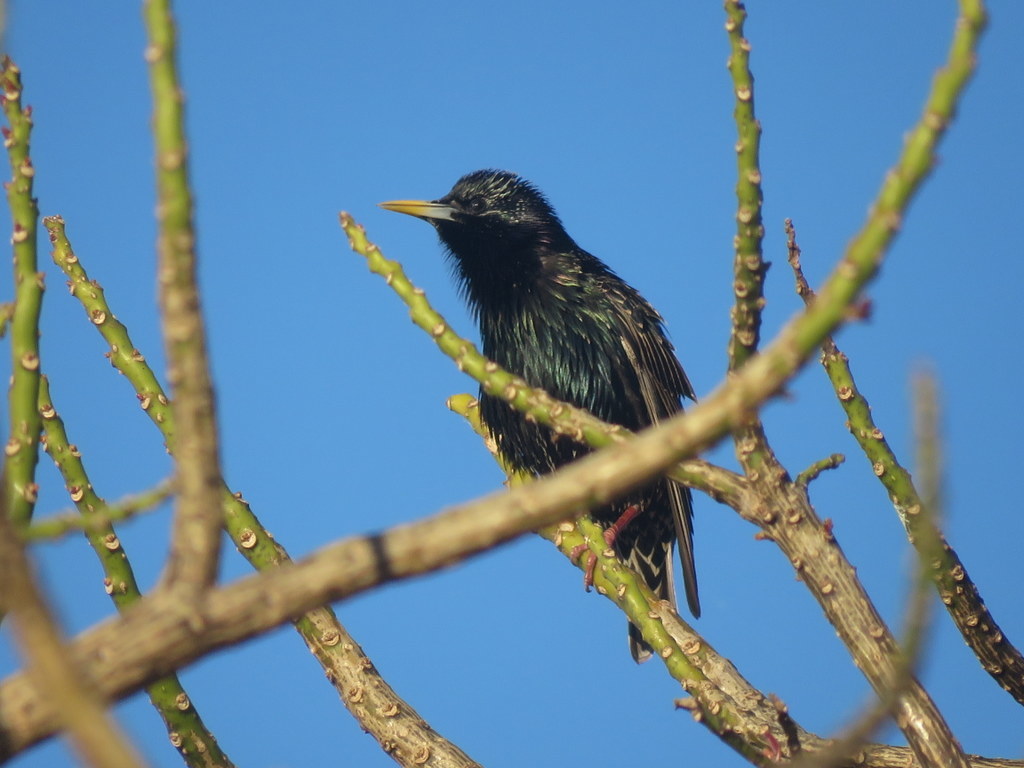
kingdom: Animalia
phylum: Chordata
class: Aves
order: Passeriformes
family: Sturnidae
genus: Sturnus
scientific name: Sturnus vulgaris
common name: Common starling
